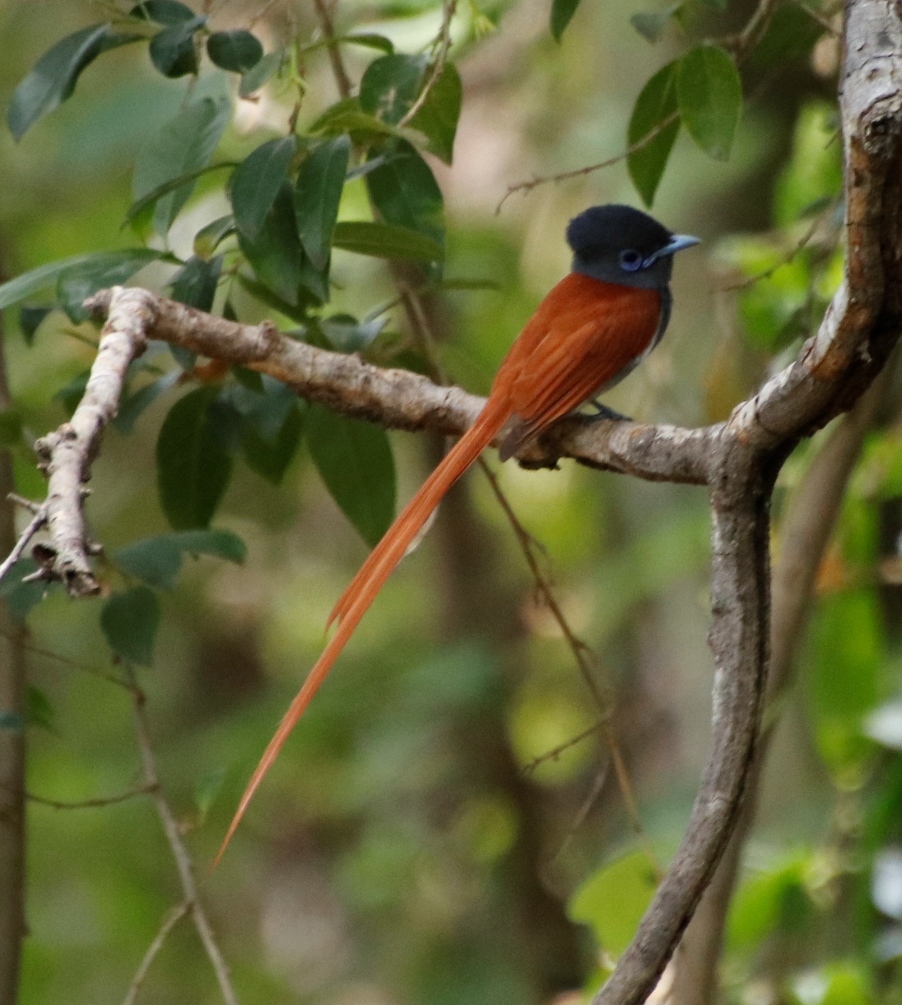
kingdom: Animalia
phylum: Chordata
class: Aves
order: Passeriformes
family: Monarchidae
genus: Terpsiphone
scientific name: Terpsiphone viridis
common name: African paradise flycatcher
